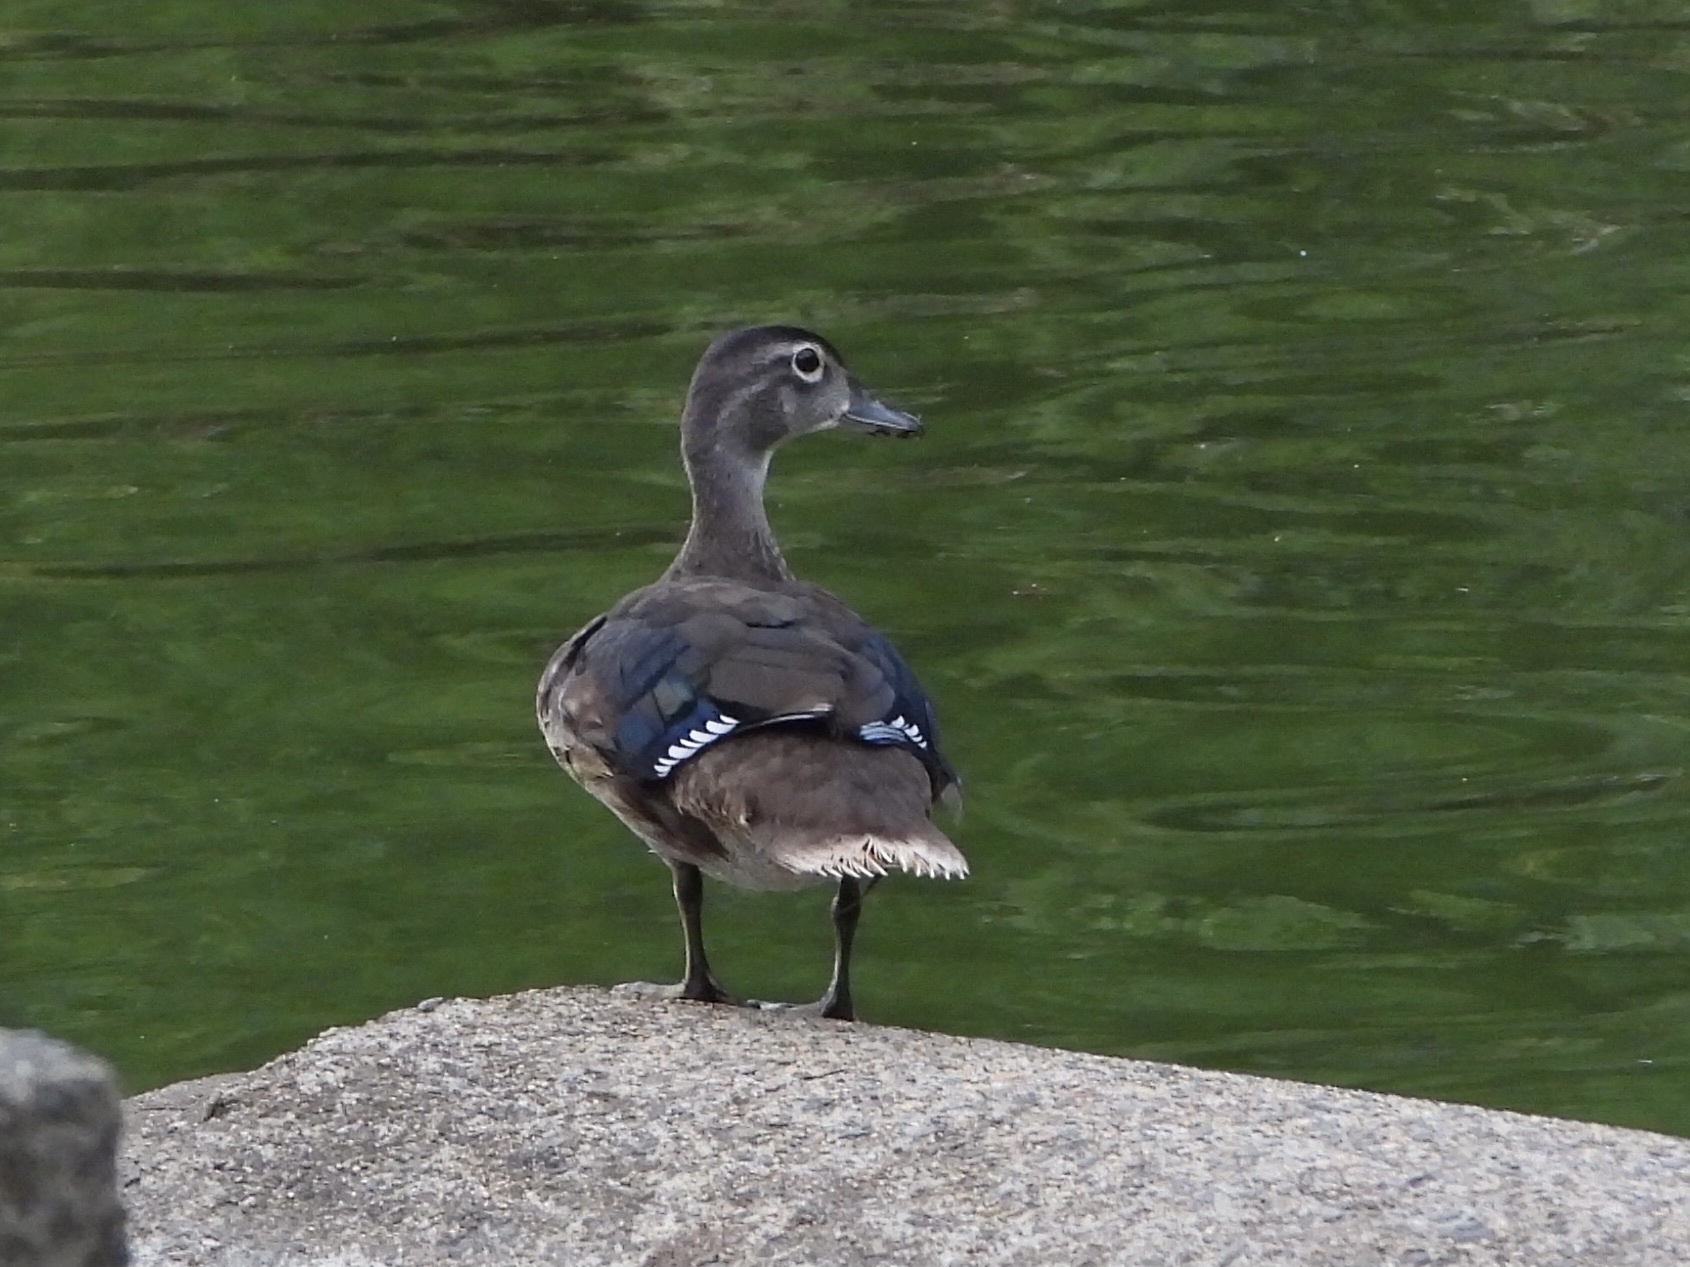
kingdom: Animalia
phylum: Chordata
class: Aves
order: Anseriformes
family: Anatidae
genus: Aix
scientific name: Aix sponsa
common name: Wood duck
